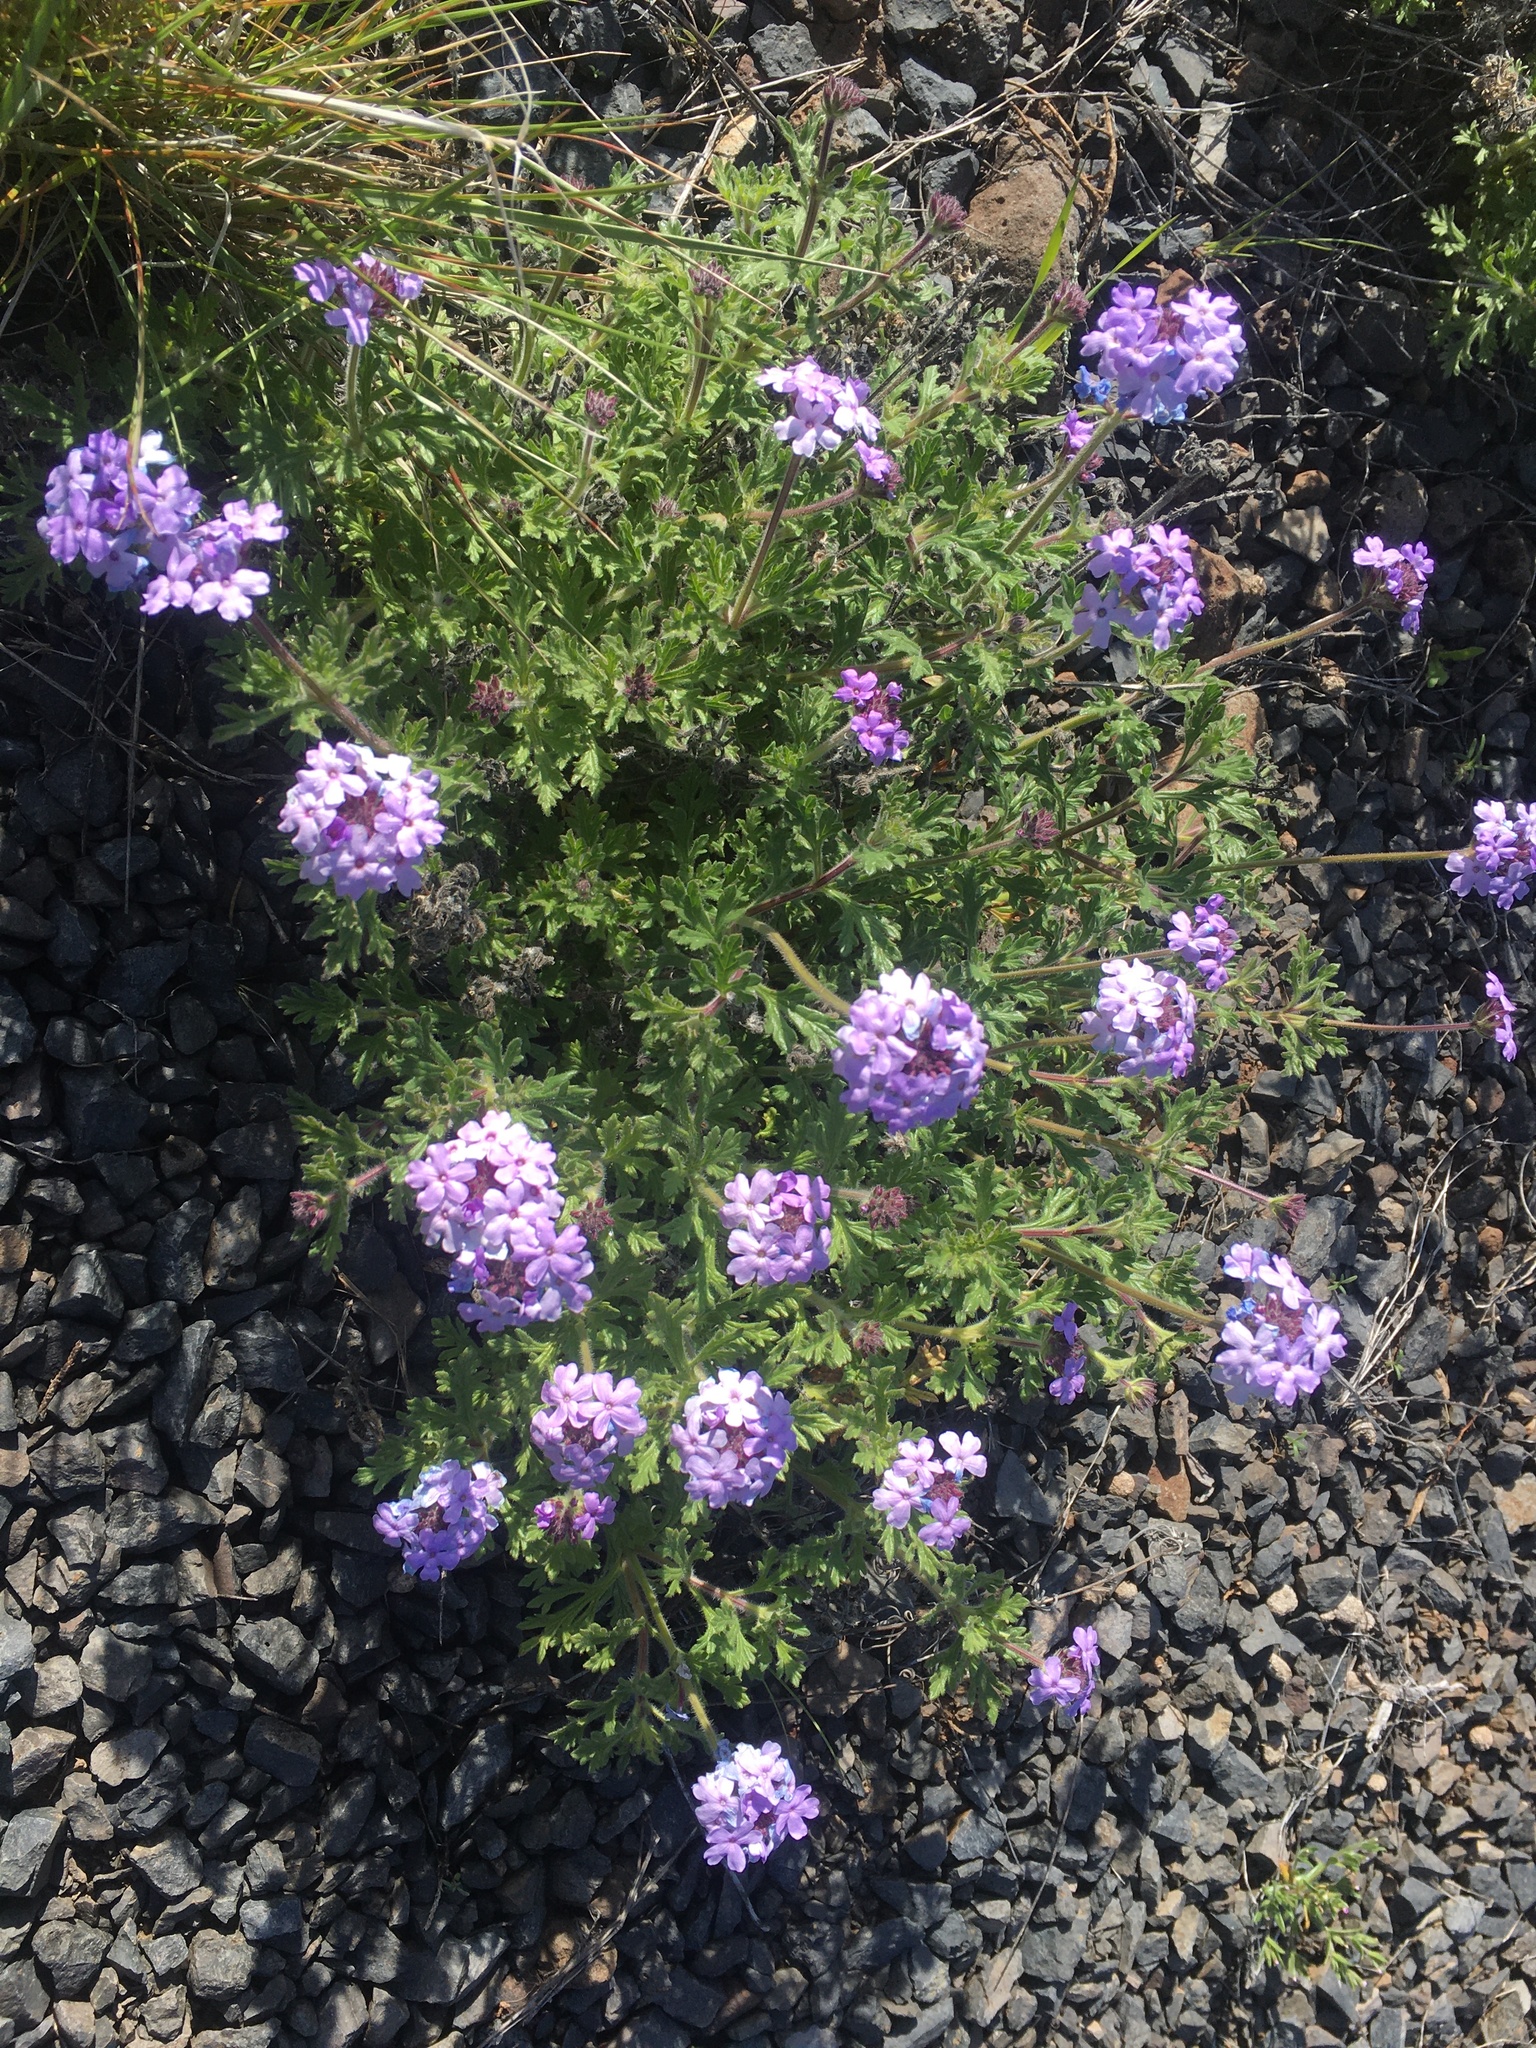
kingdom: Plantae
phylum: Tracheophyta
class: Magnoliopsida
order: Lamiales
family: Verbenaceae
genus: Verbena
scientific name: Verbena gooddingii
